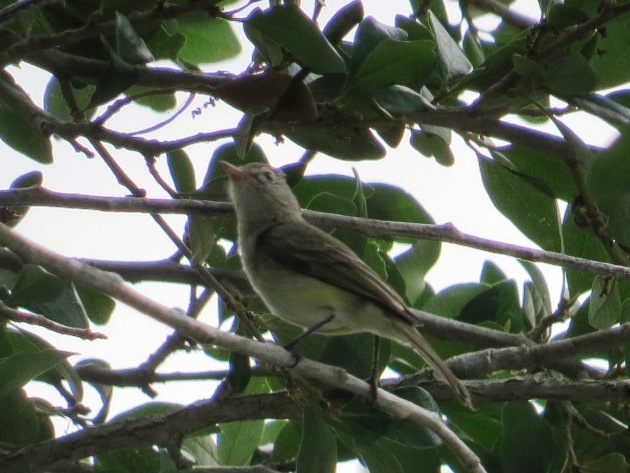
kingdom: Animalia
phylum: Chordata
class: Aves
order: Passeriformes
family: Tyrannidae
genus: Camptostoma
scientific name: Camptostoma imberbe
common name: Northern beardless-tyrannulet
